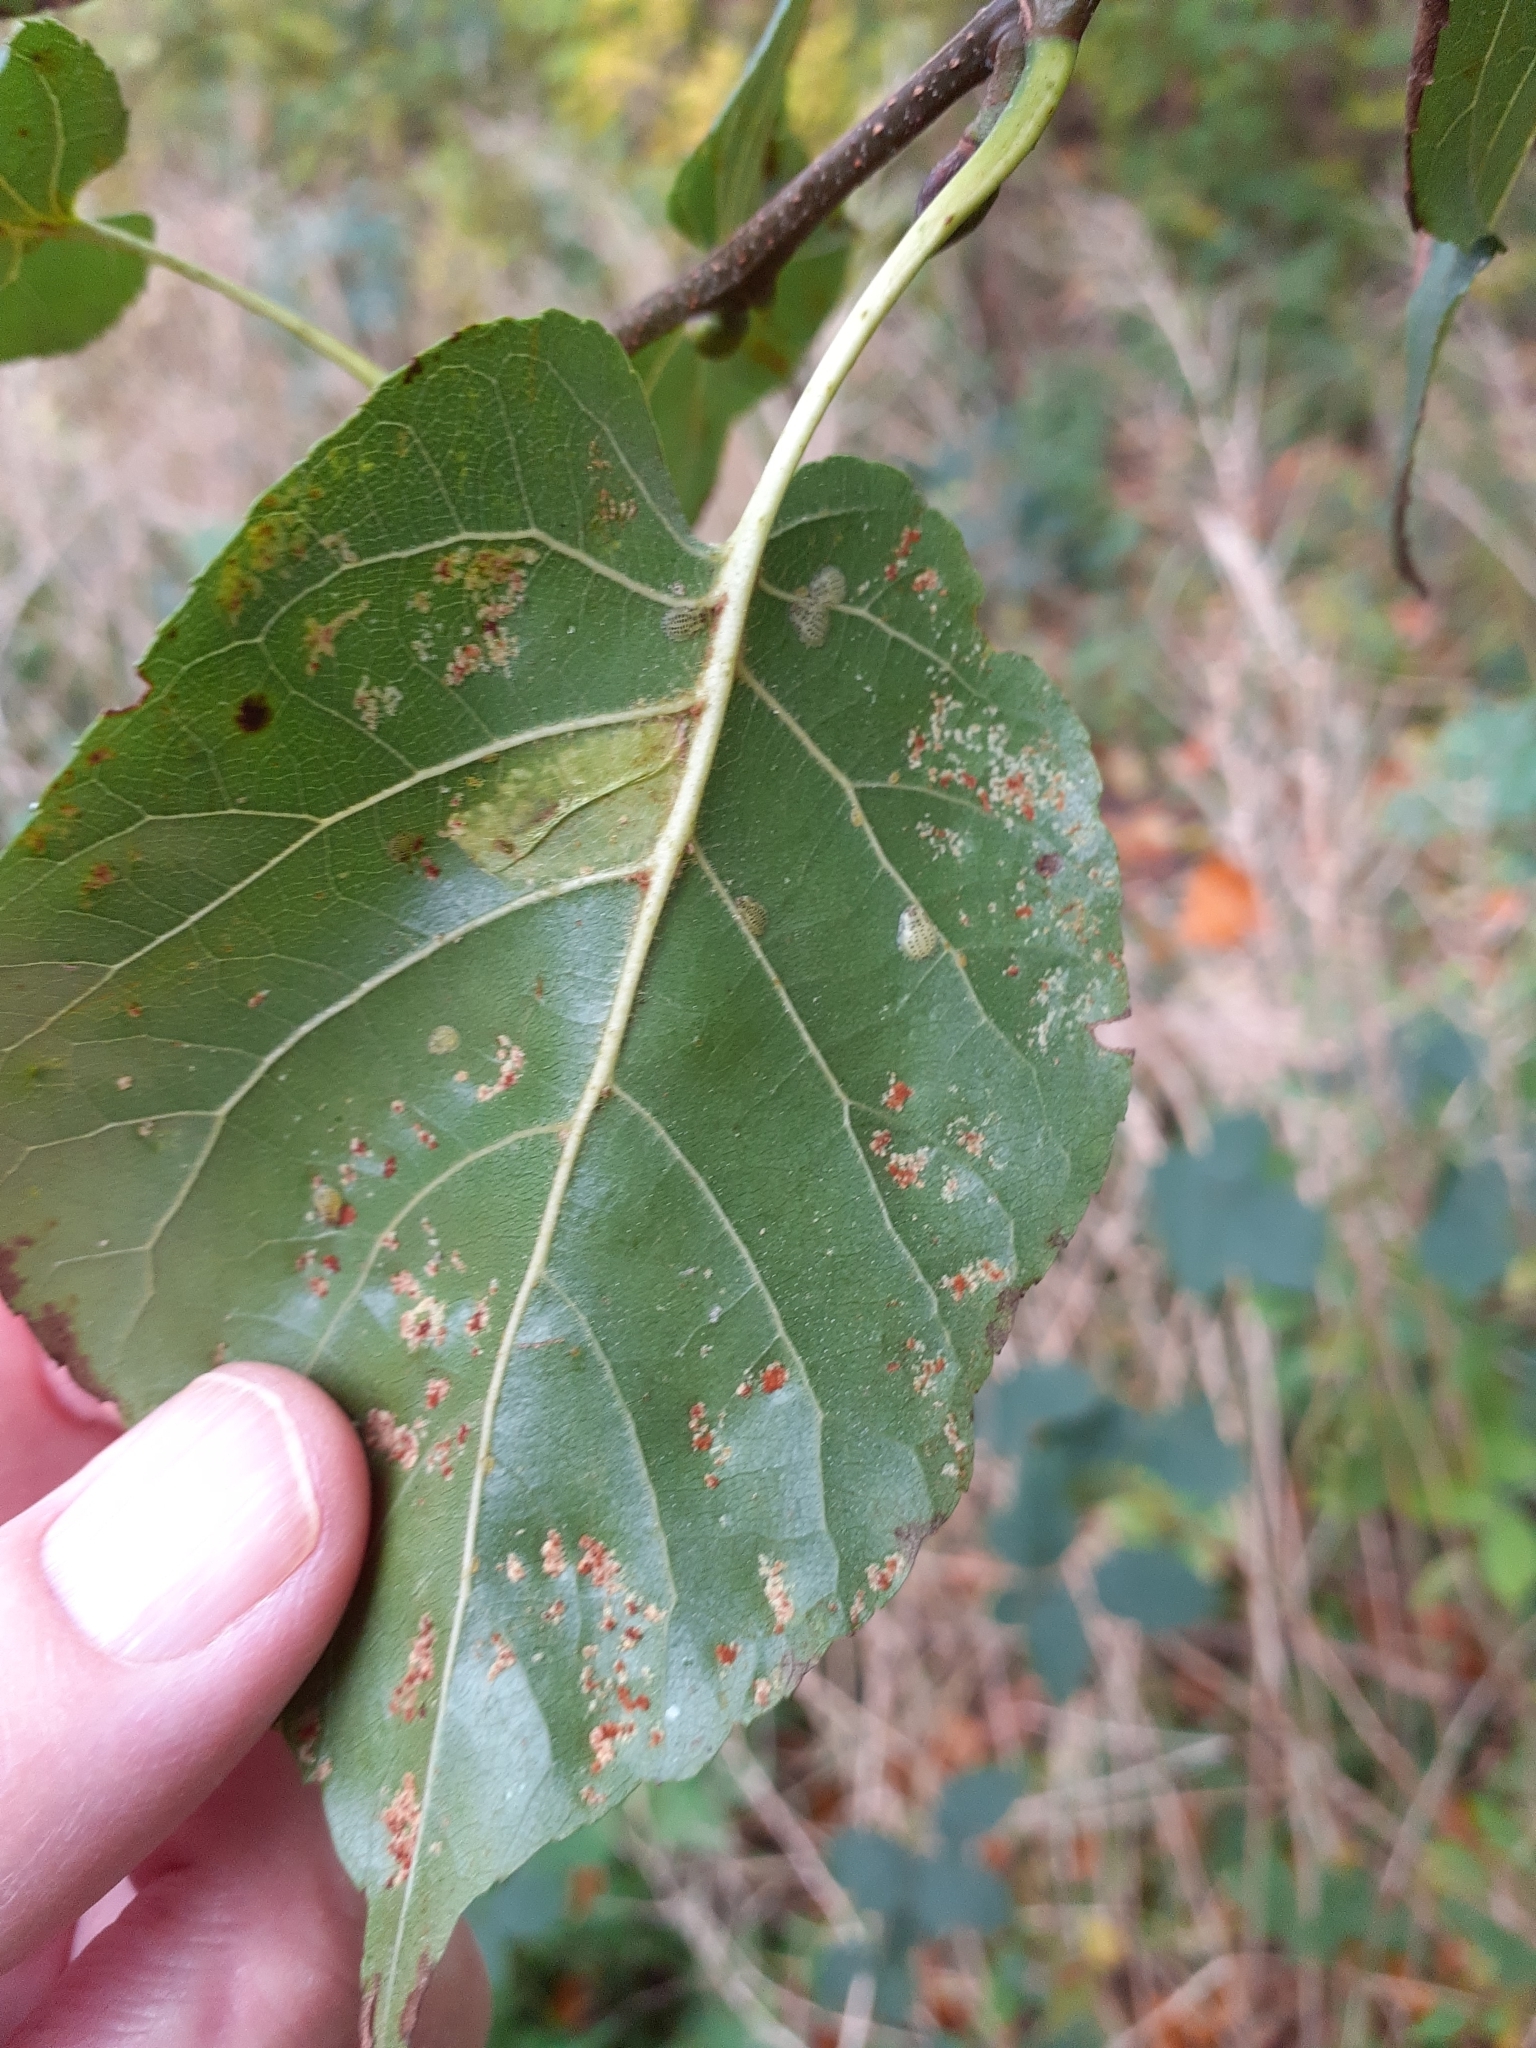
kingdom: Animalia
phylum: Arthropoda
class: Insecta
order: Lepidoptera
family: Gracillariidae
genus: Phyllonorycter
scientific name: Phyllonorycter rajella
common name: Common alder midget
